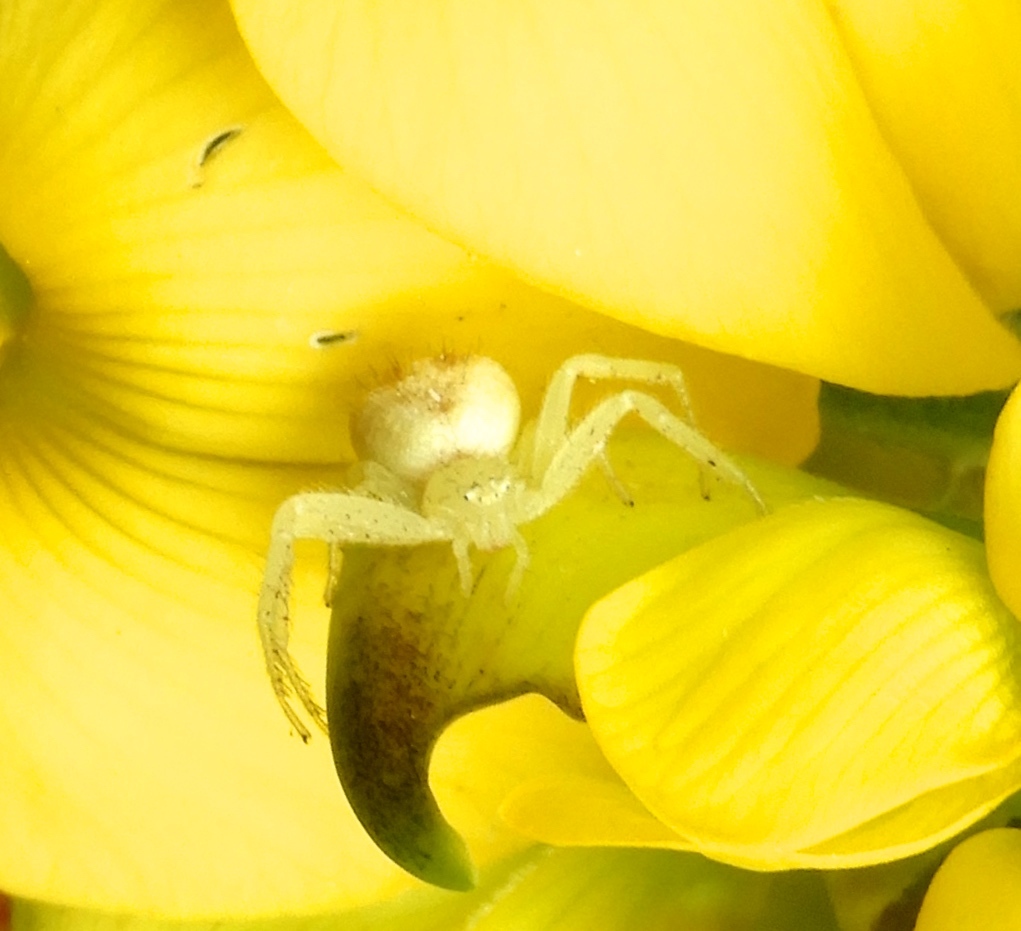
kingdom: Animalia
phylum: Arthropoda
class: Arachnida
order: Araneae
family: Thomisidae
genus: Mecaphesa
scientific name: Mecaphesa
